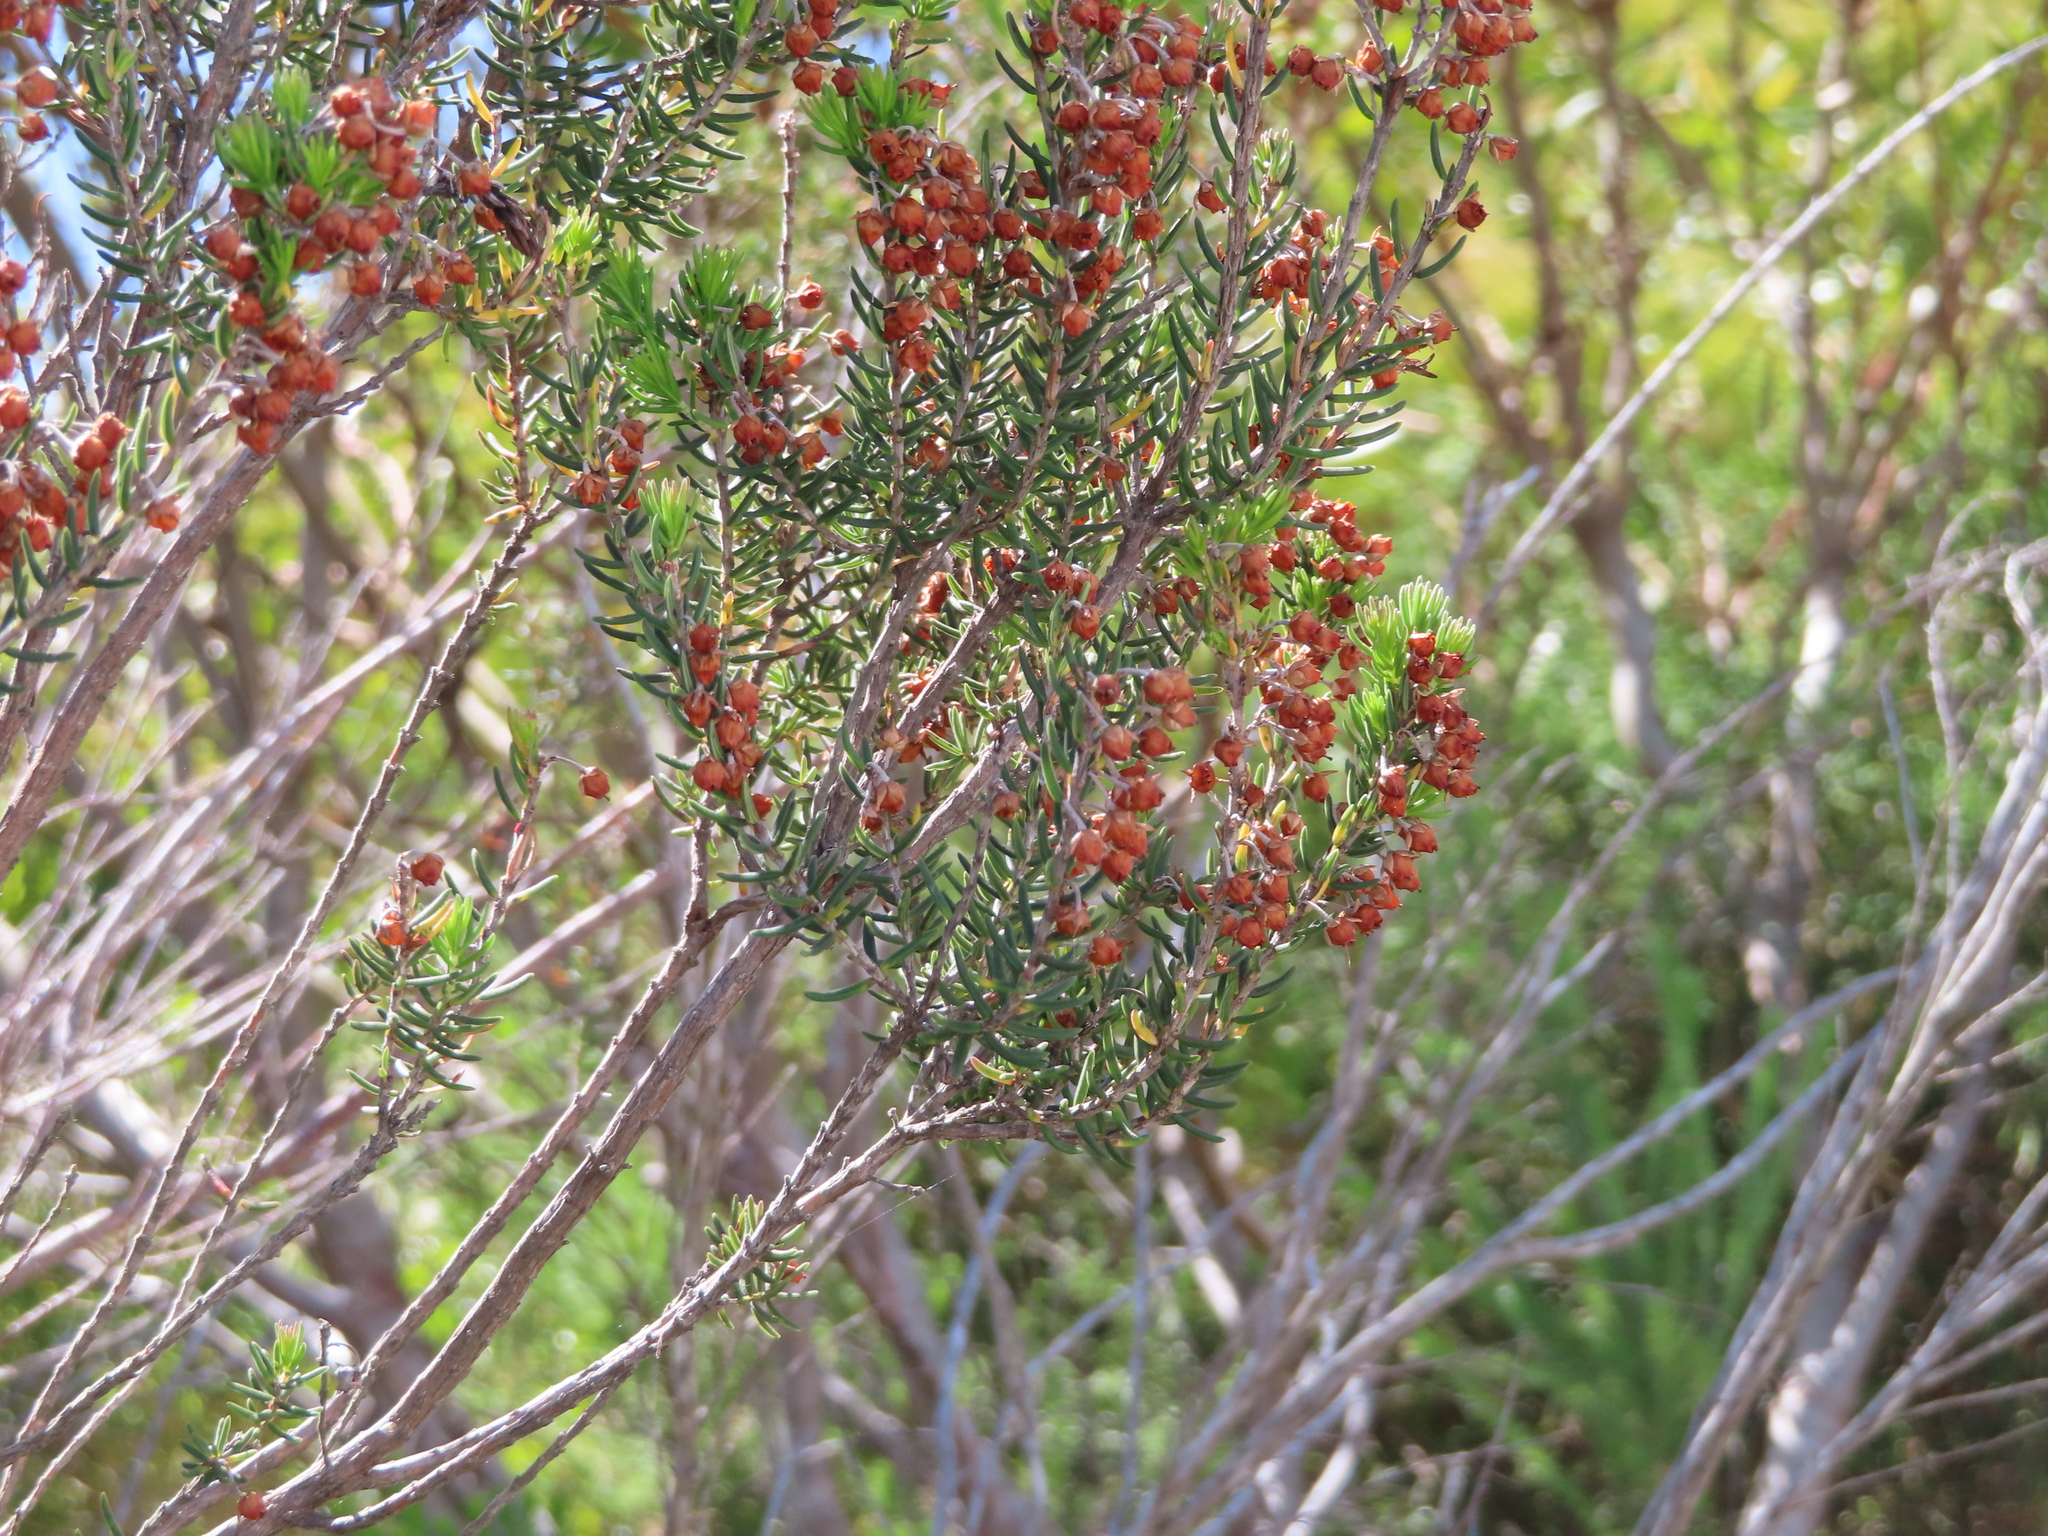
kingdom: Plantae
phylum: Tracheophyta
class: Magnoliopsida
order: Ericales
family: Ericaceae
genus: Erica
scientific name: Erica irregularis
